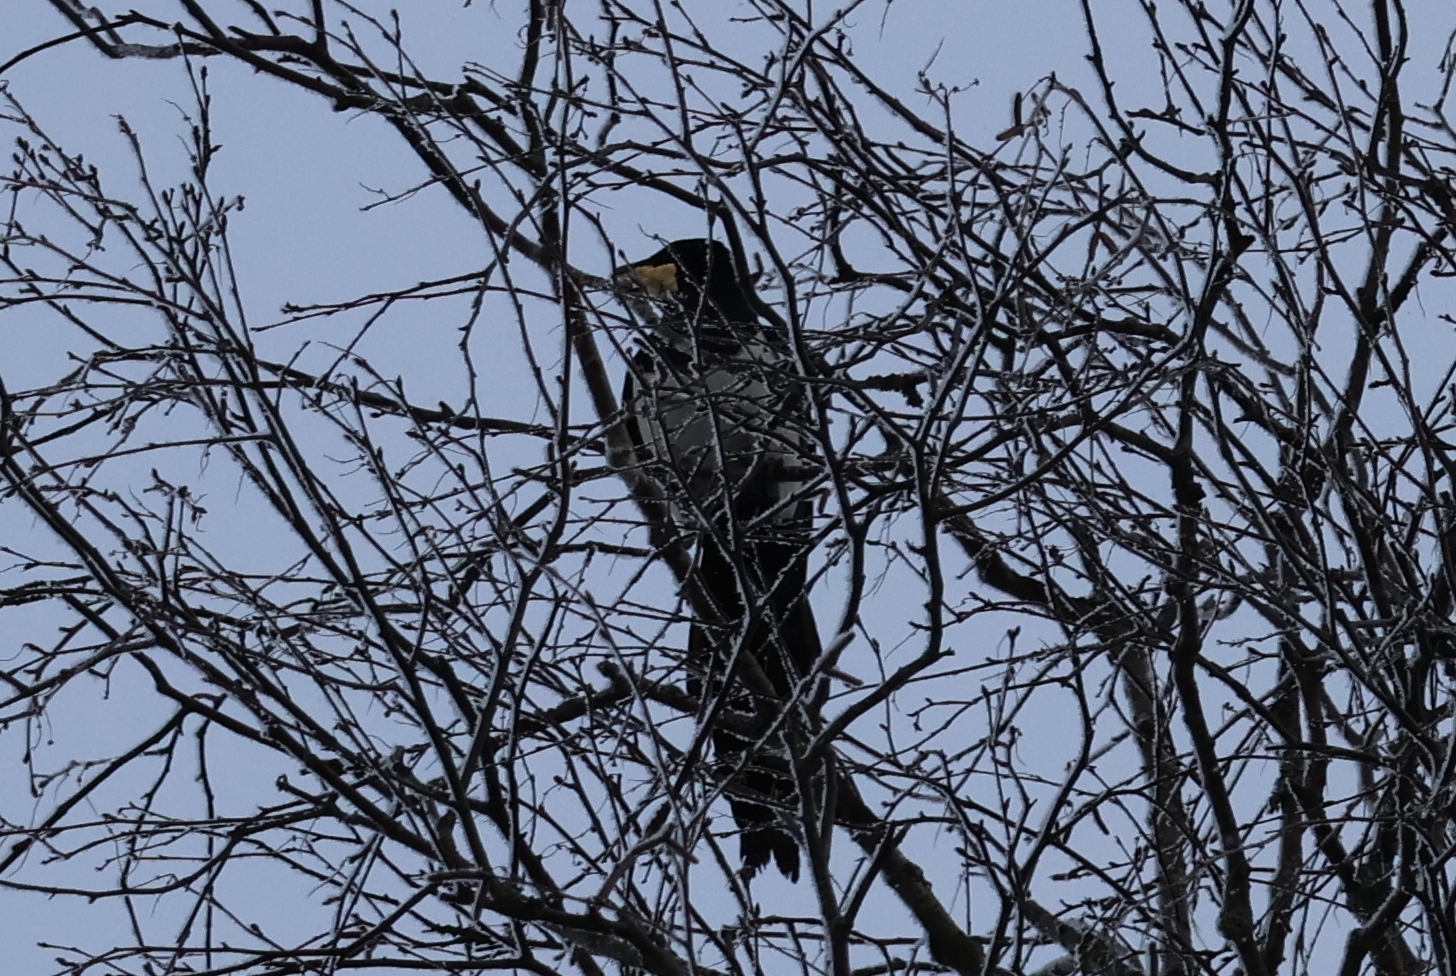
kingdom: Animalia
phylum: Chordata
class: Aves
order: Passeriformes
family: Corvidae
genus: Pica
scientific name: Pica pica
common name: Eurasian magpie
